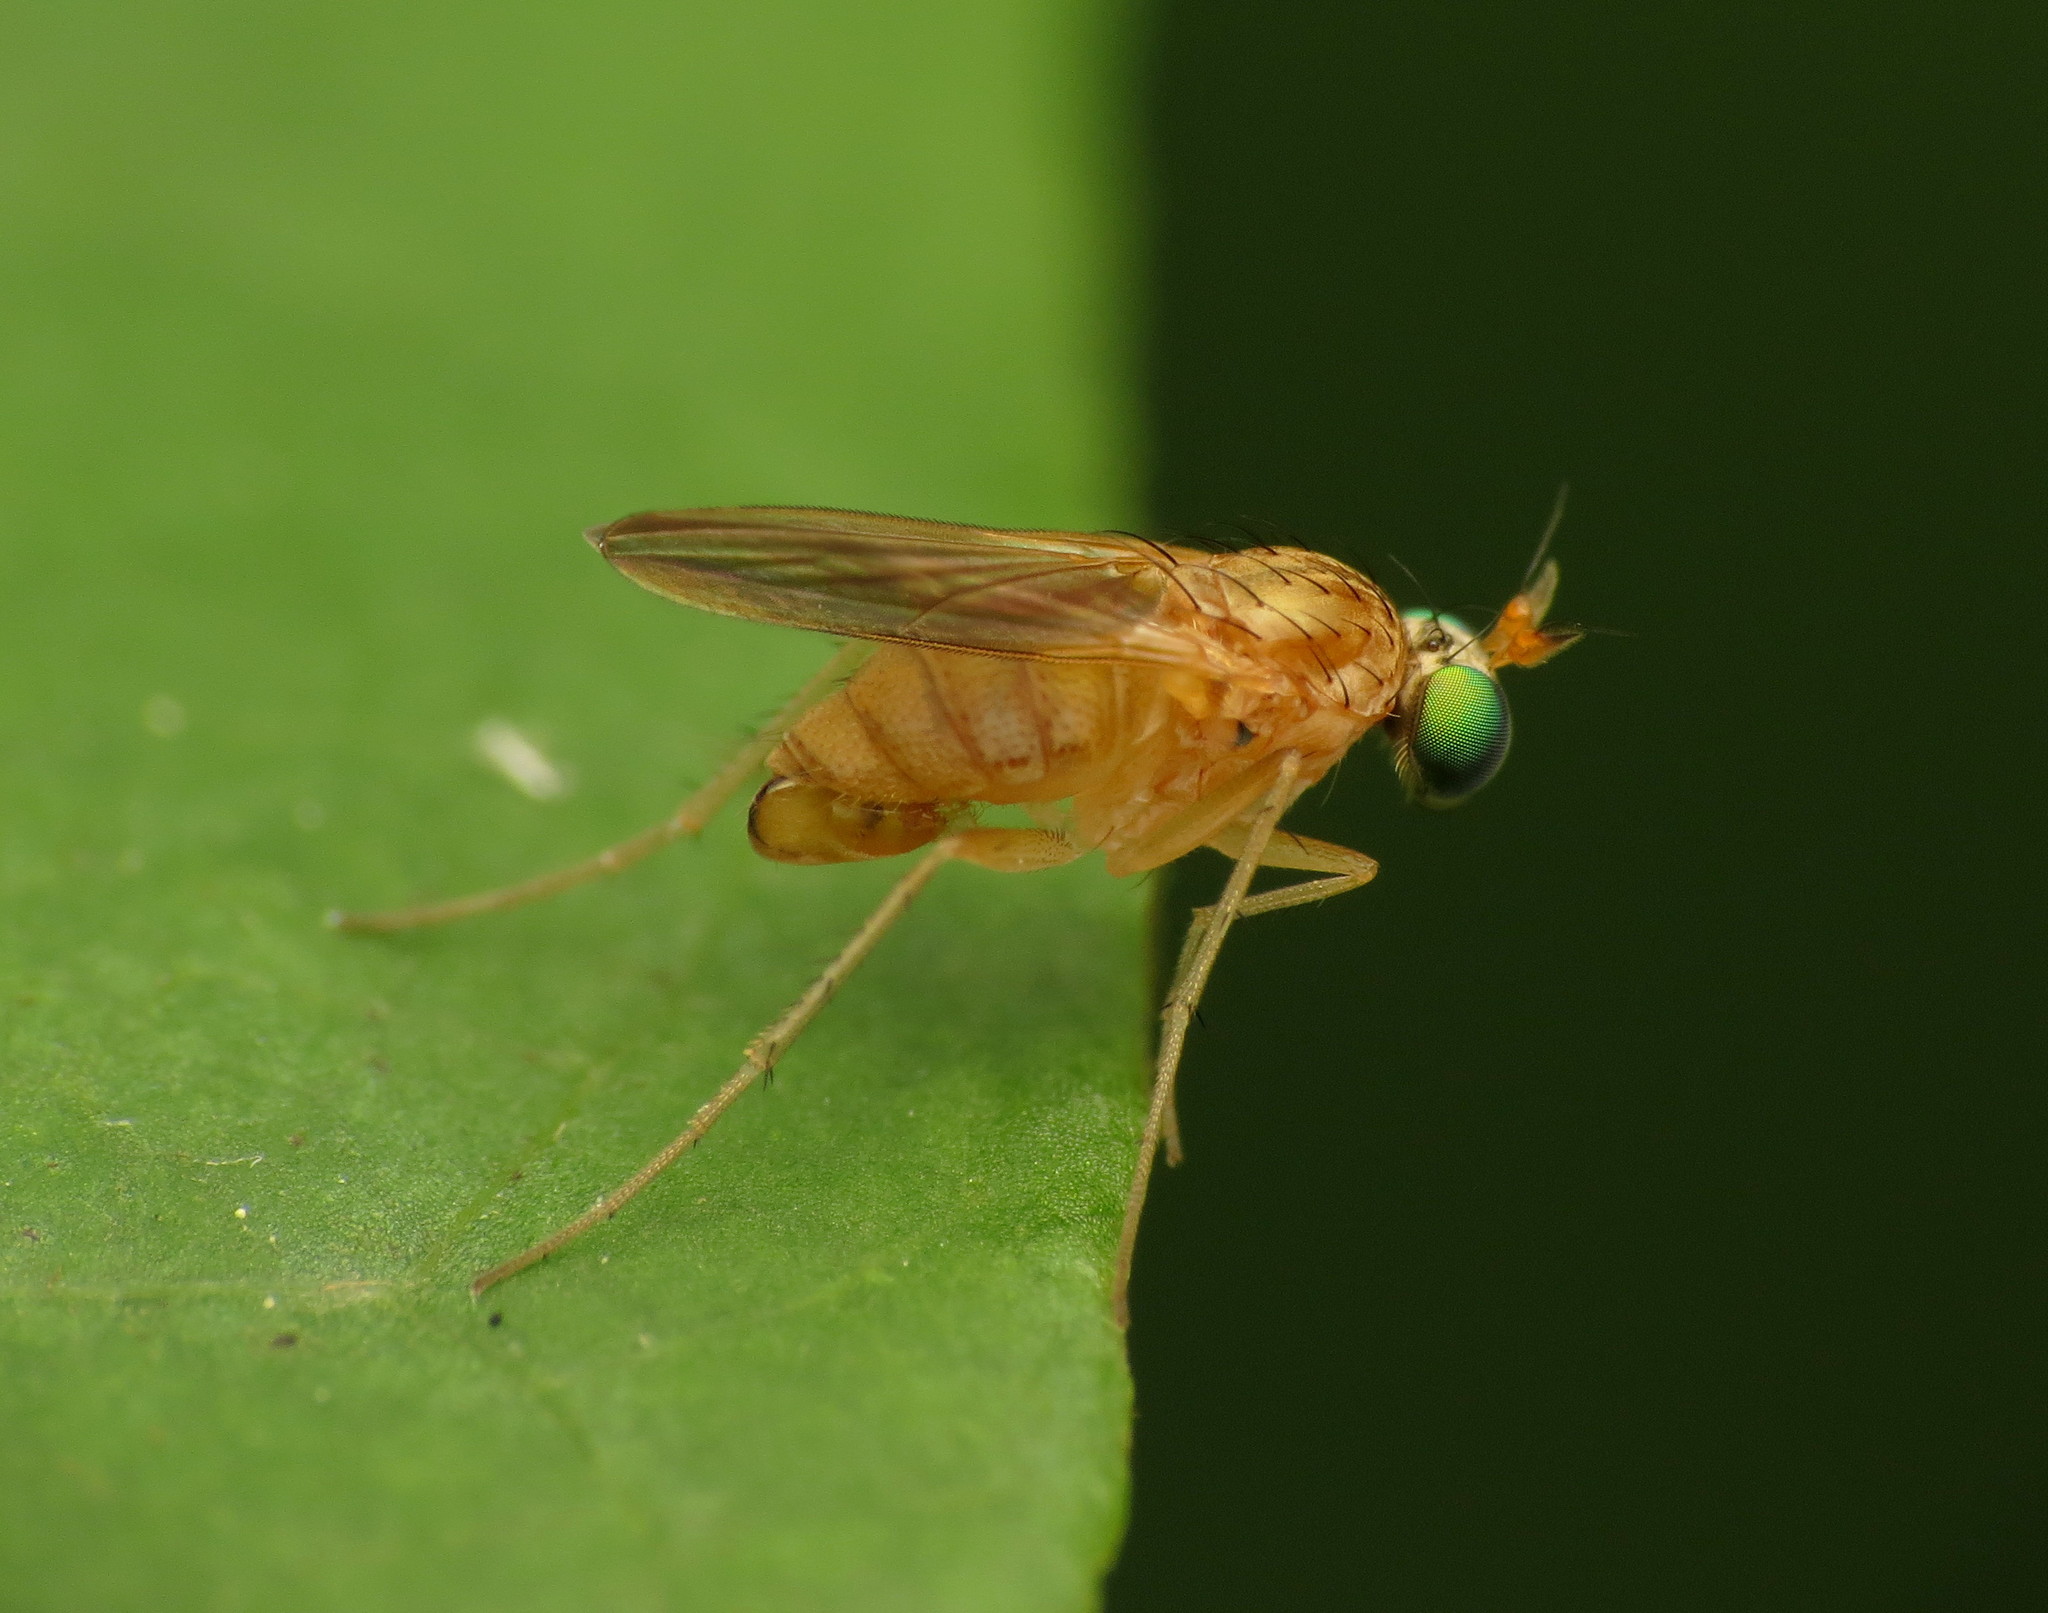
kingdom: Animalia
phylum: Arthropoda
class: Insecta
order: Diptera
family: Dolichopodidae
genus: Gymnopternus
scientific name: Gymnopternus flavus
